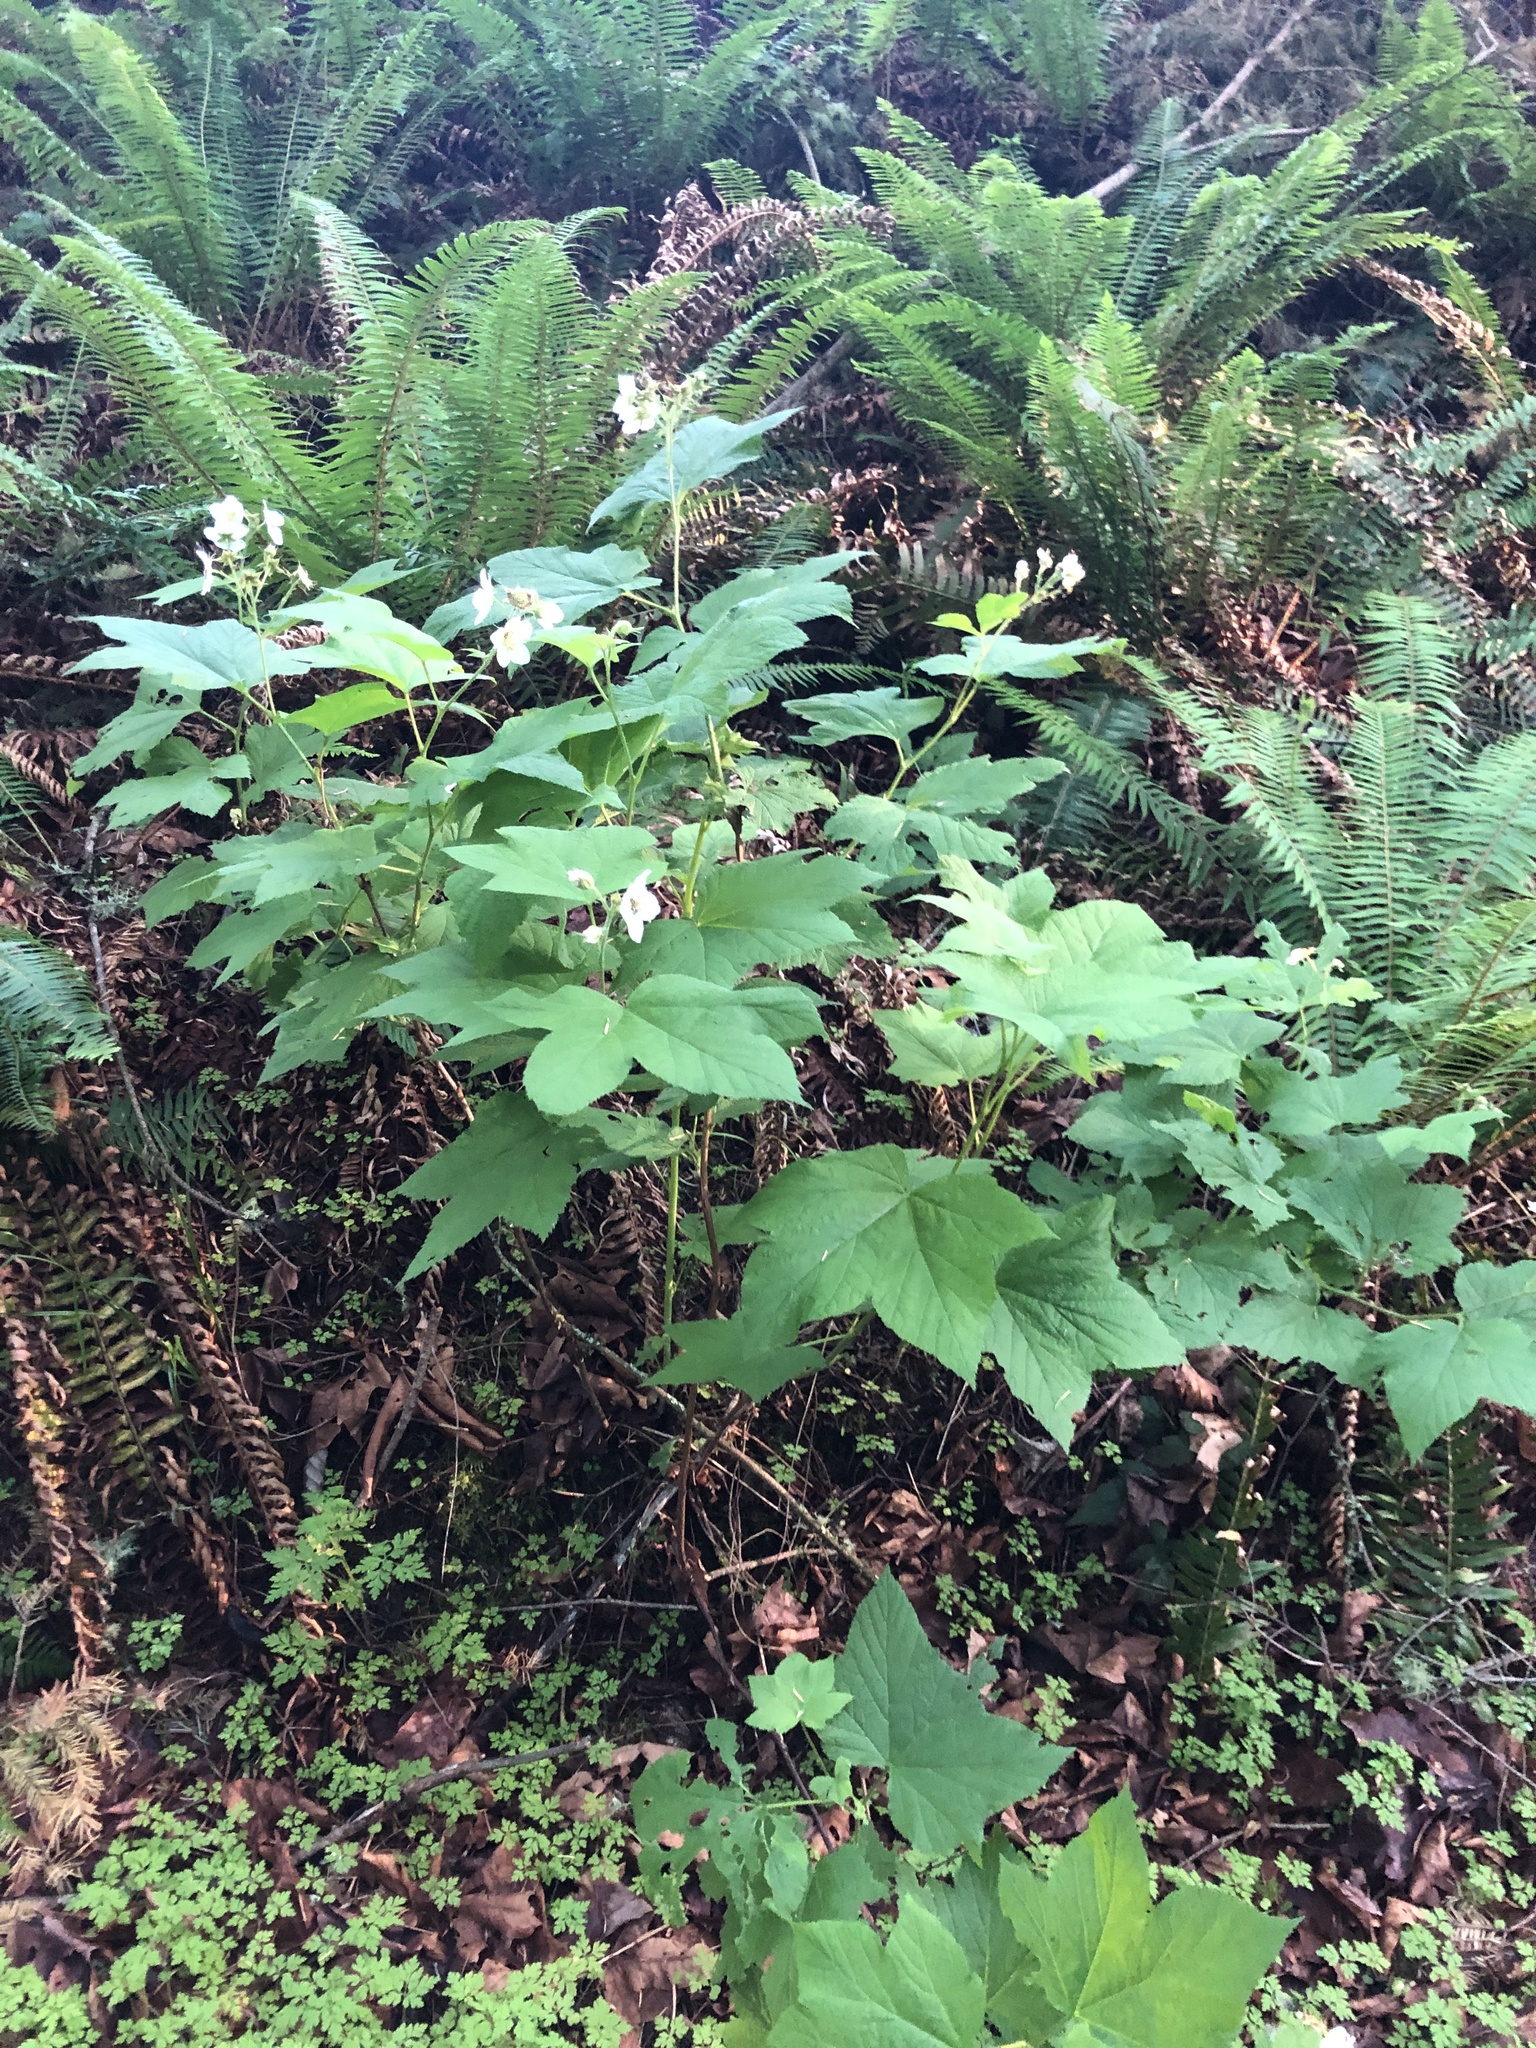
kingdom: Plantae
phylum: Tracheophyta
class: Magnoliopsida
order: Rosales
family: Rosaceae
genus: Rubus
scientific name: Rubus parviflorus
